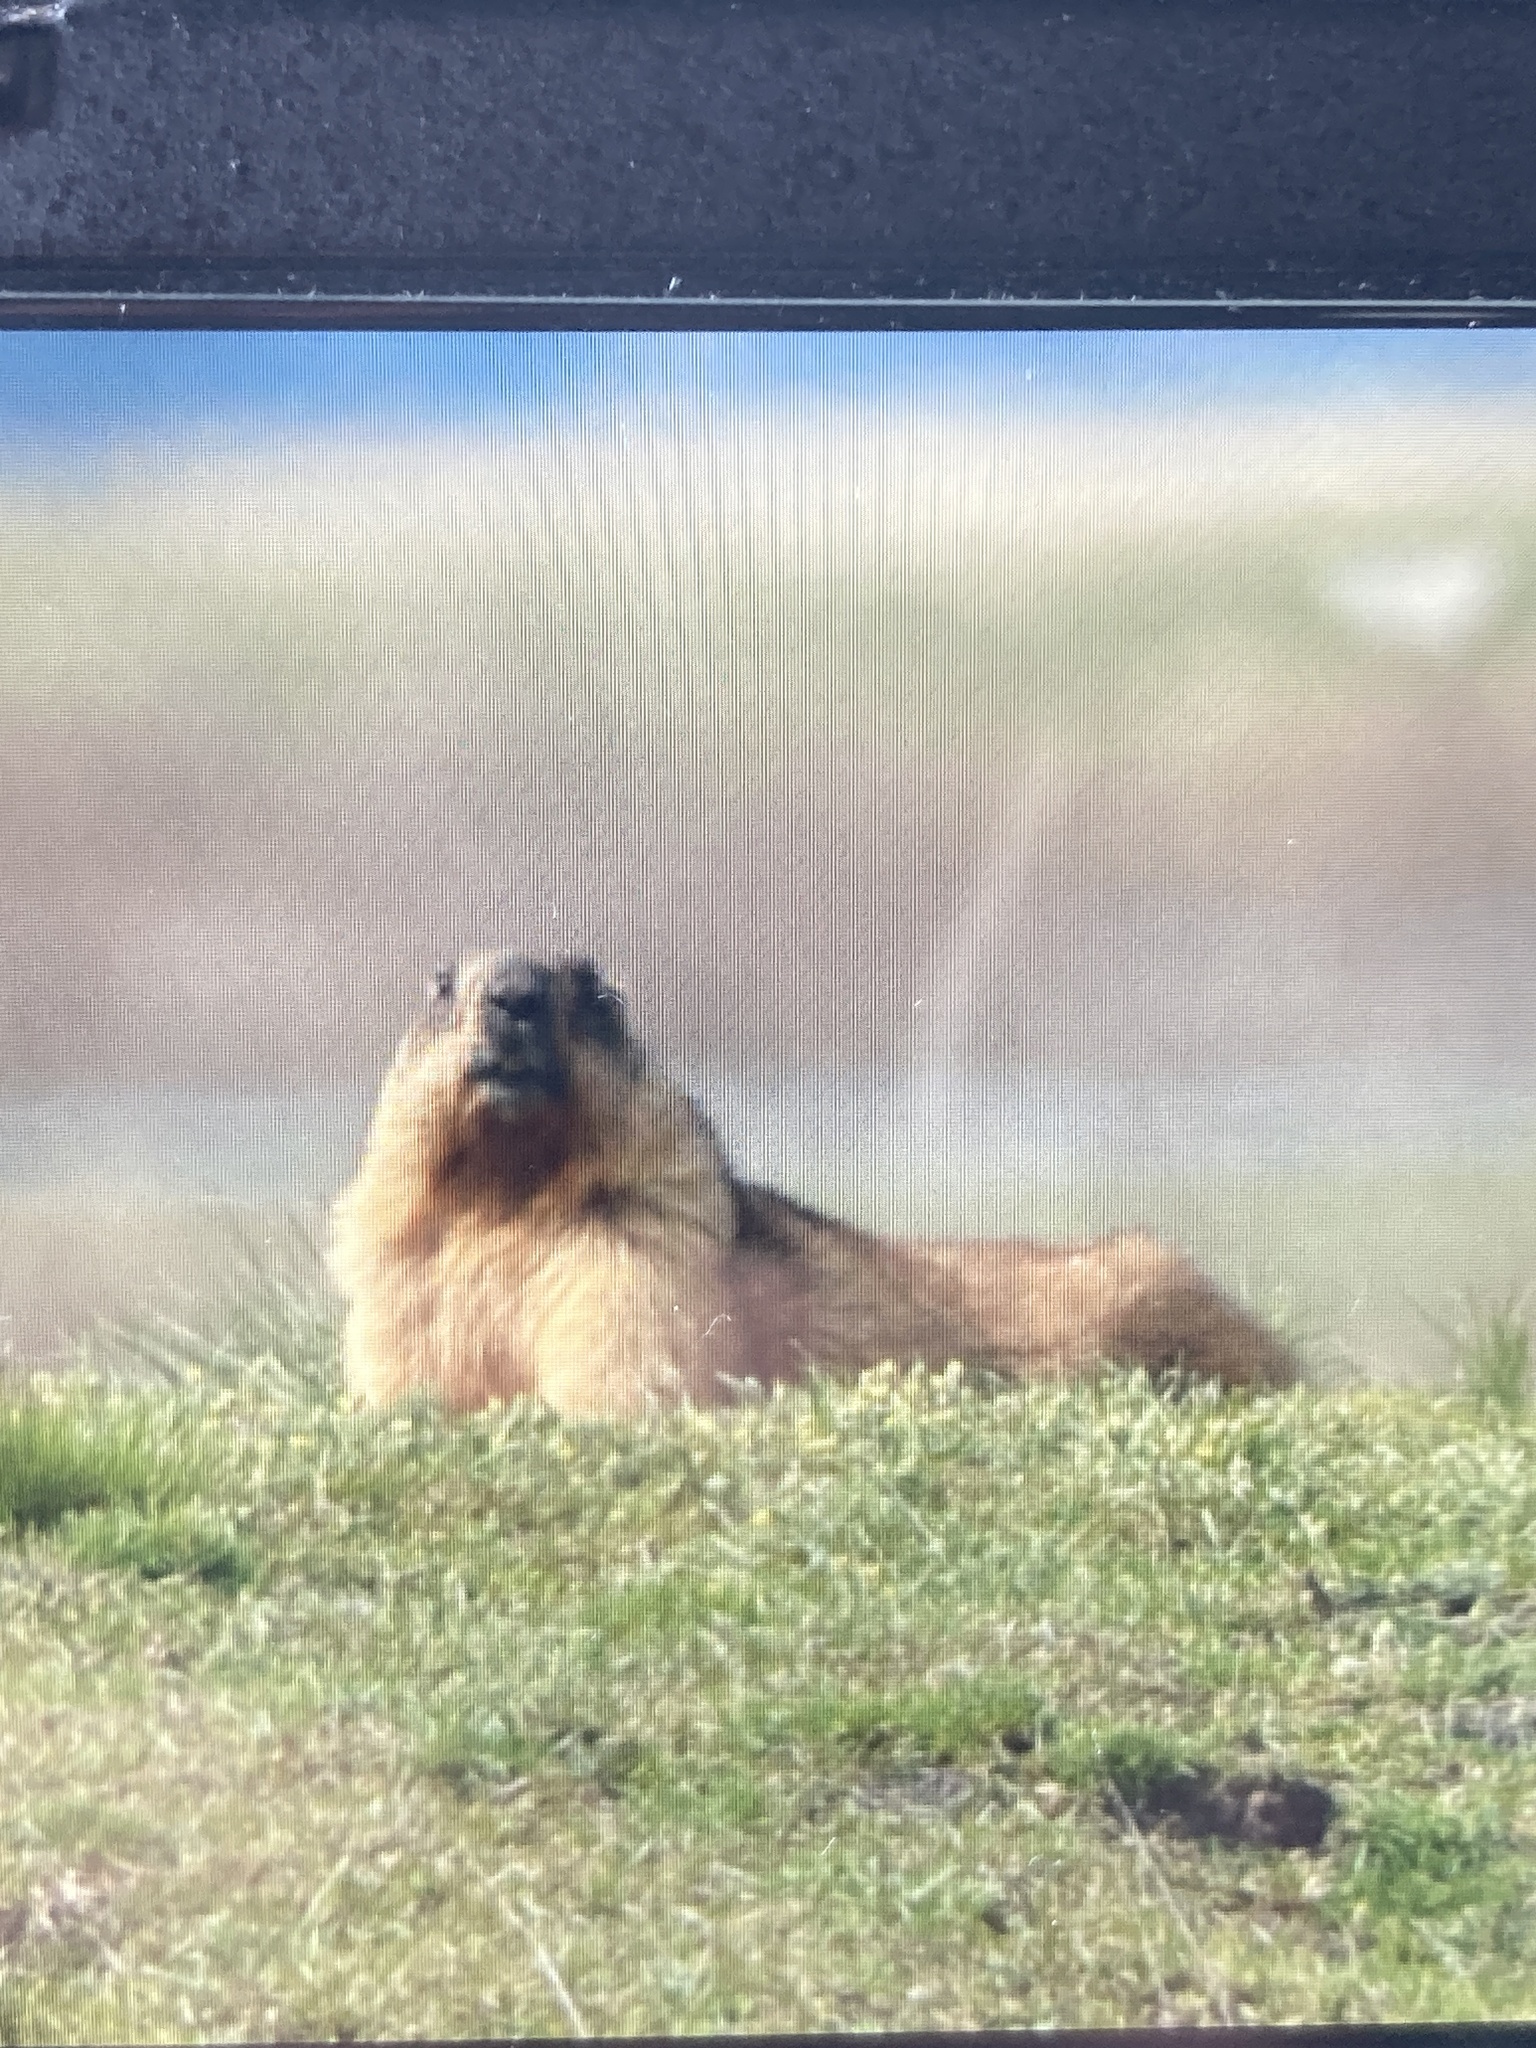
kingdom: Animalia
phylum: Chordata
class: Mammalia
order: Rodentia
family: Sciuridae
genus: Marmota
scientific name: Marmota bobak
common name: Bobak marmot
